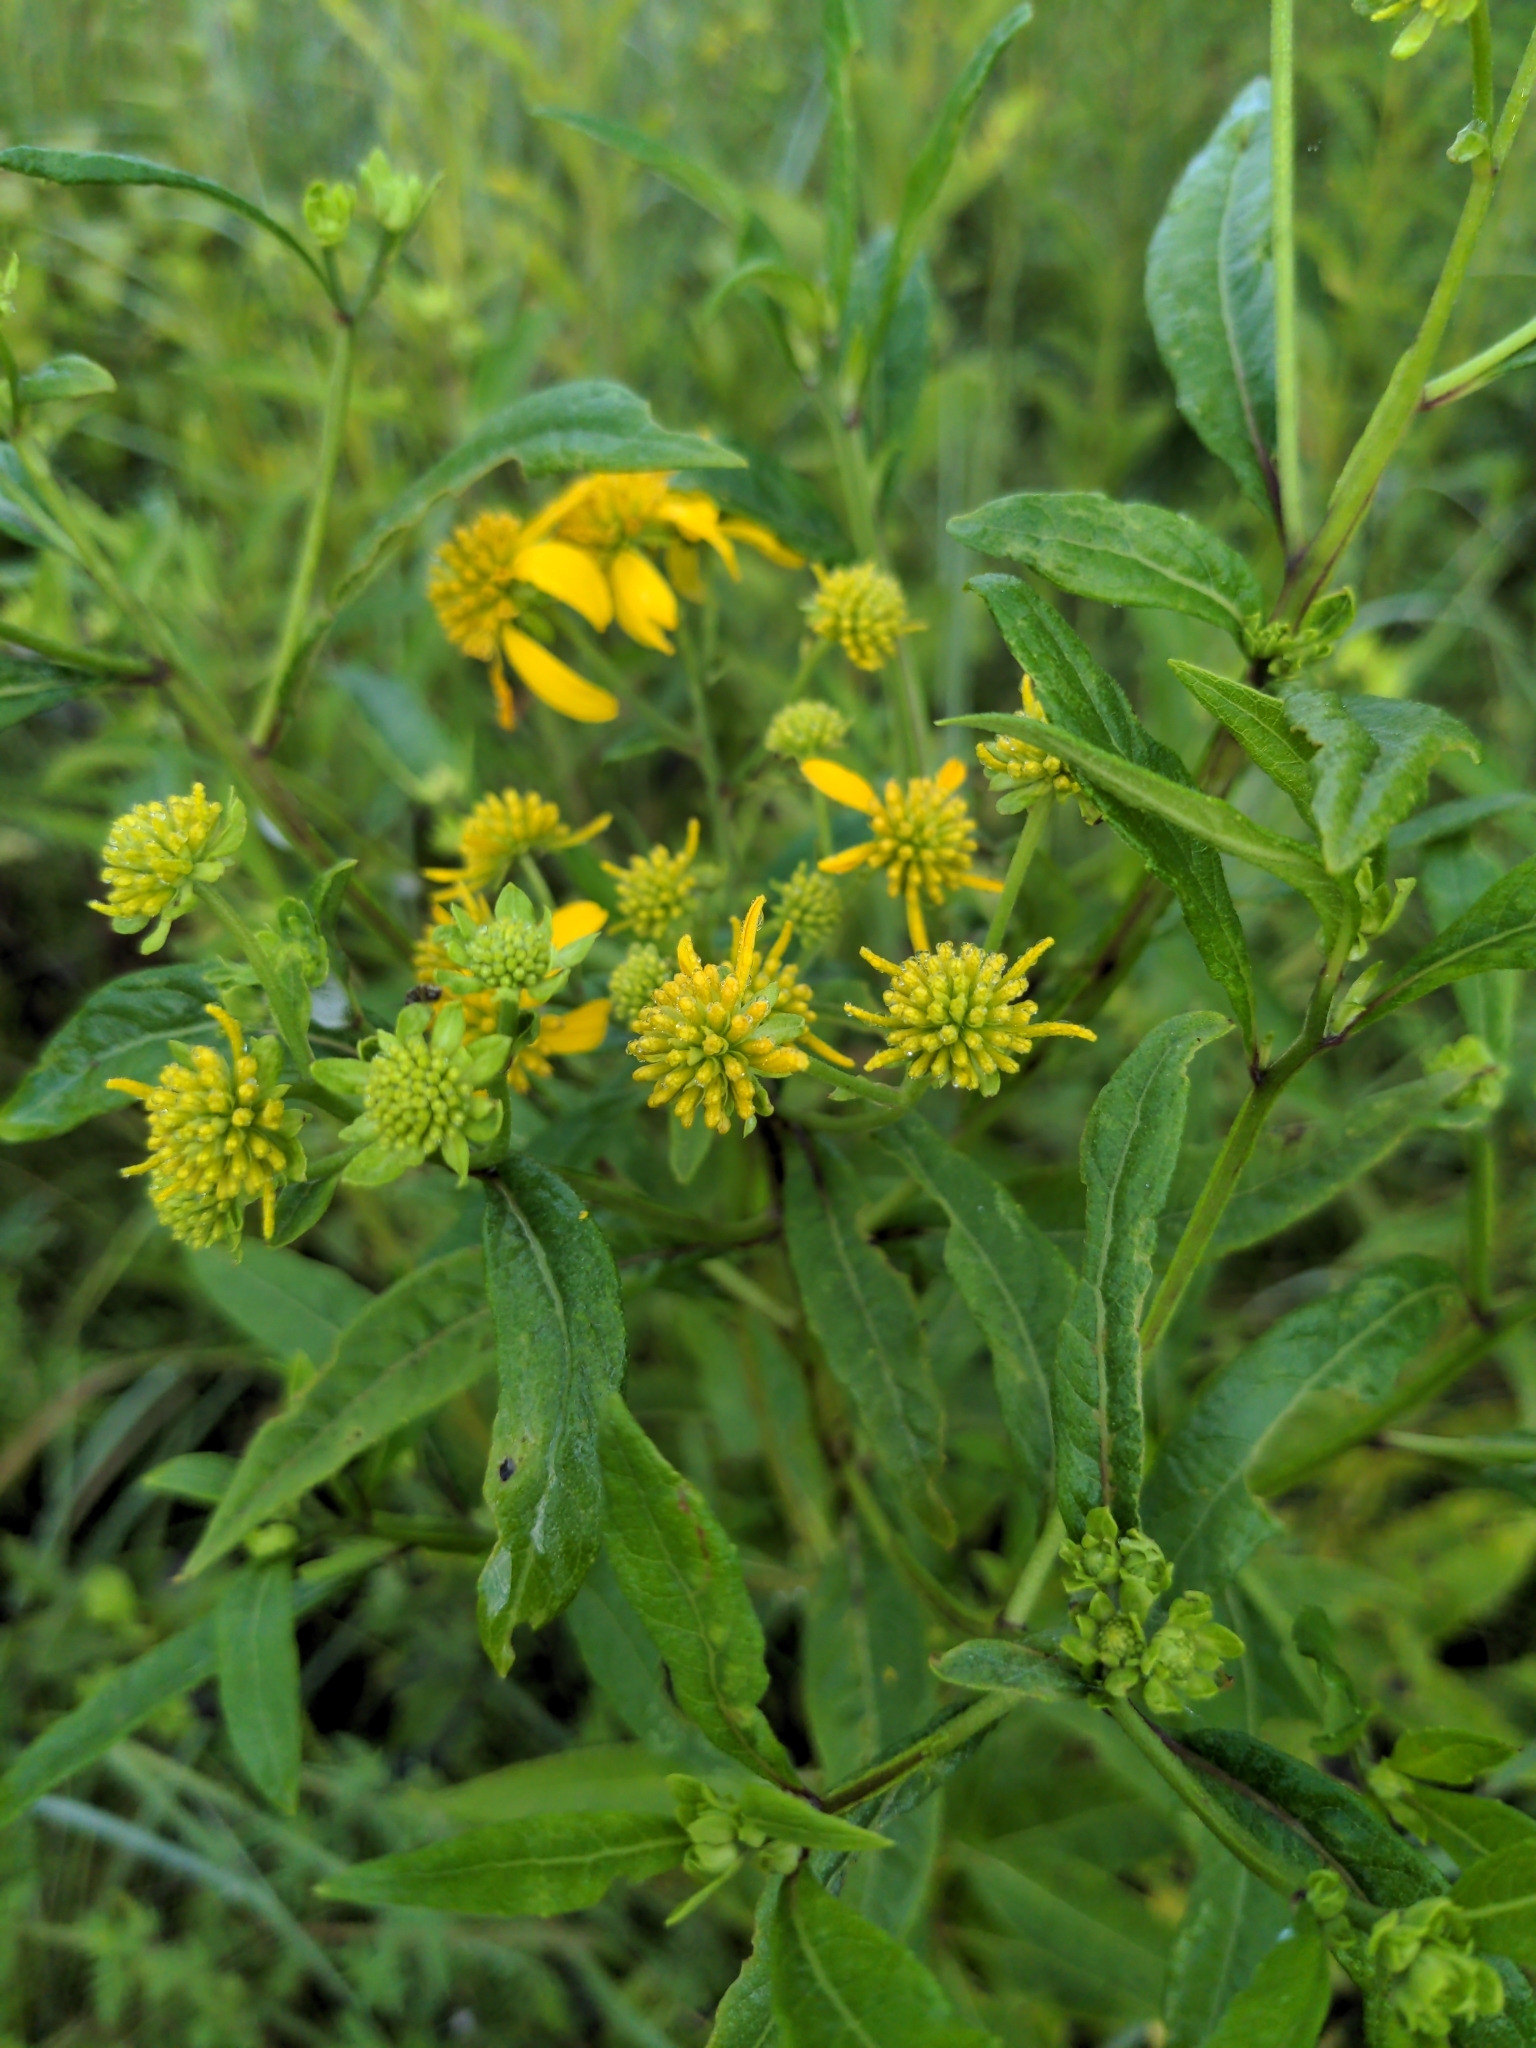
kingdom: Plantae
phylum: Tracheophyta
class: Magnoliopsida
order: Asterales
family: Asteraceae
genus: Verbesina
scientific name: Verbesina alternifolia
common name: Wingstem
